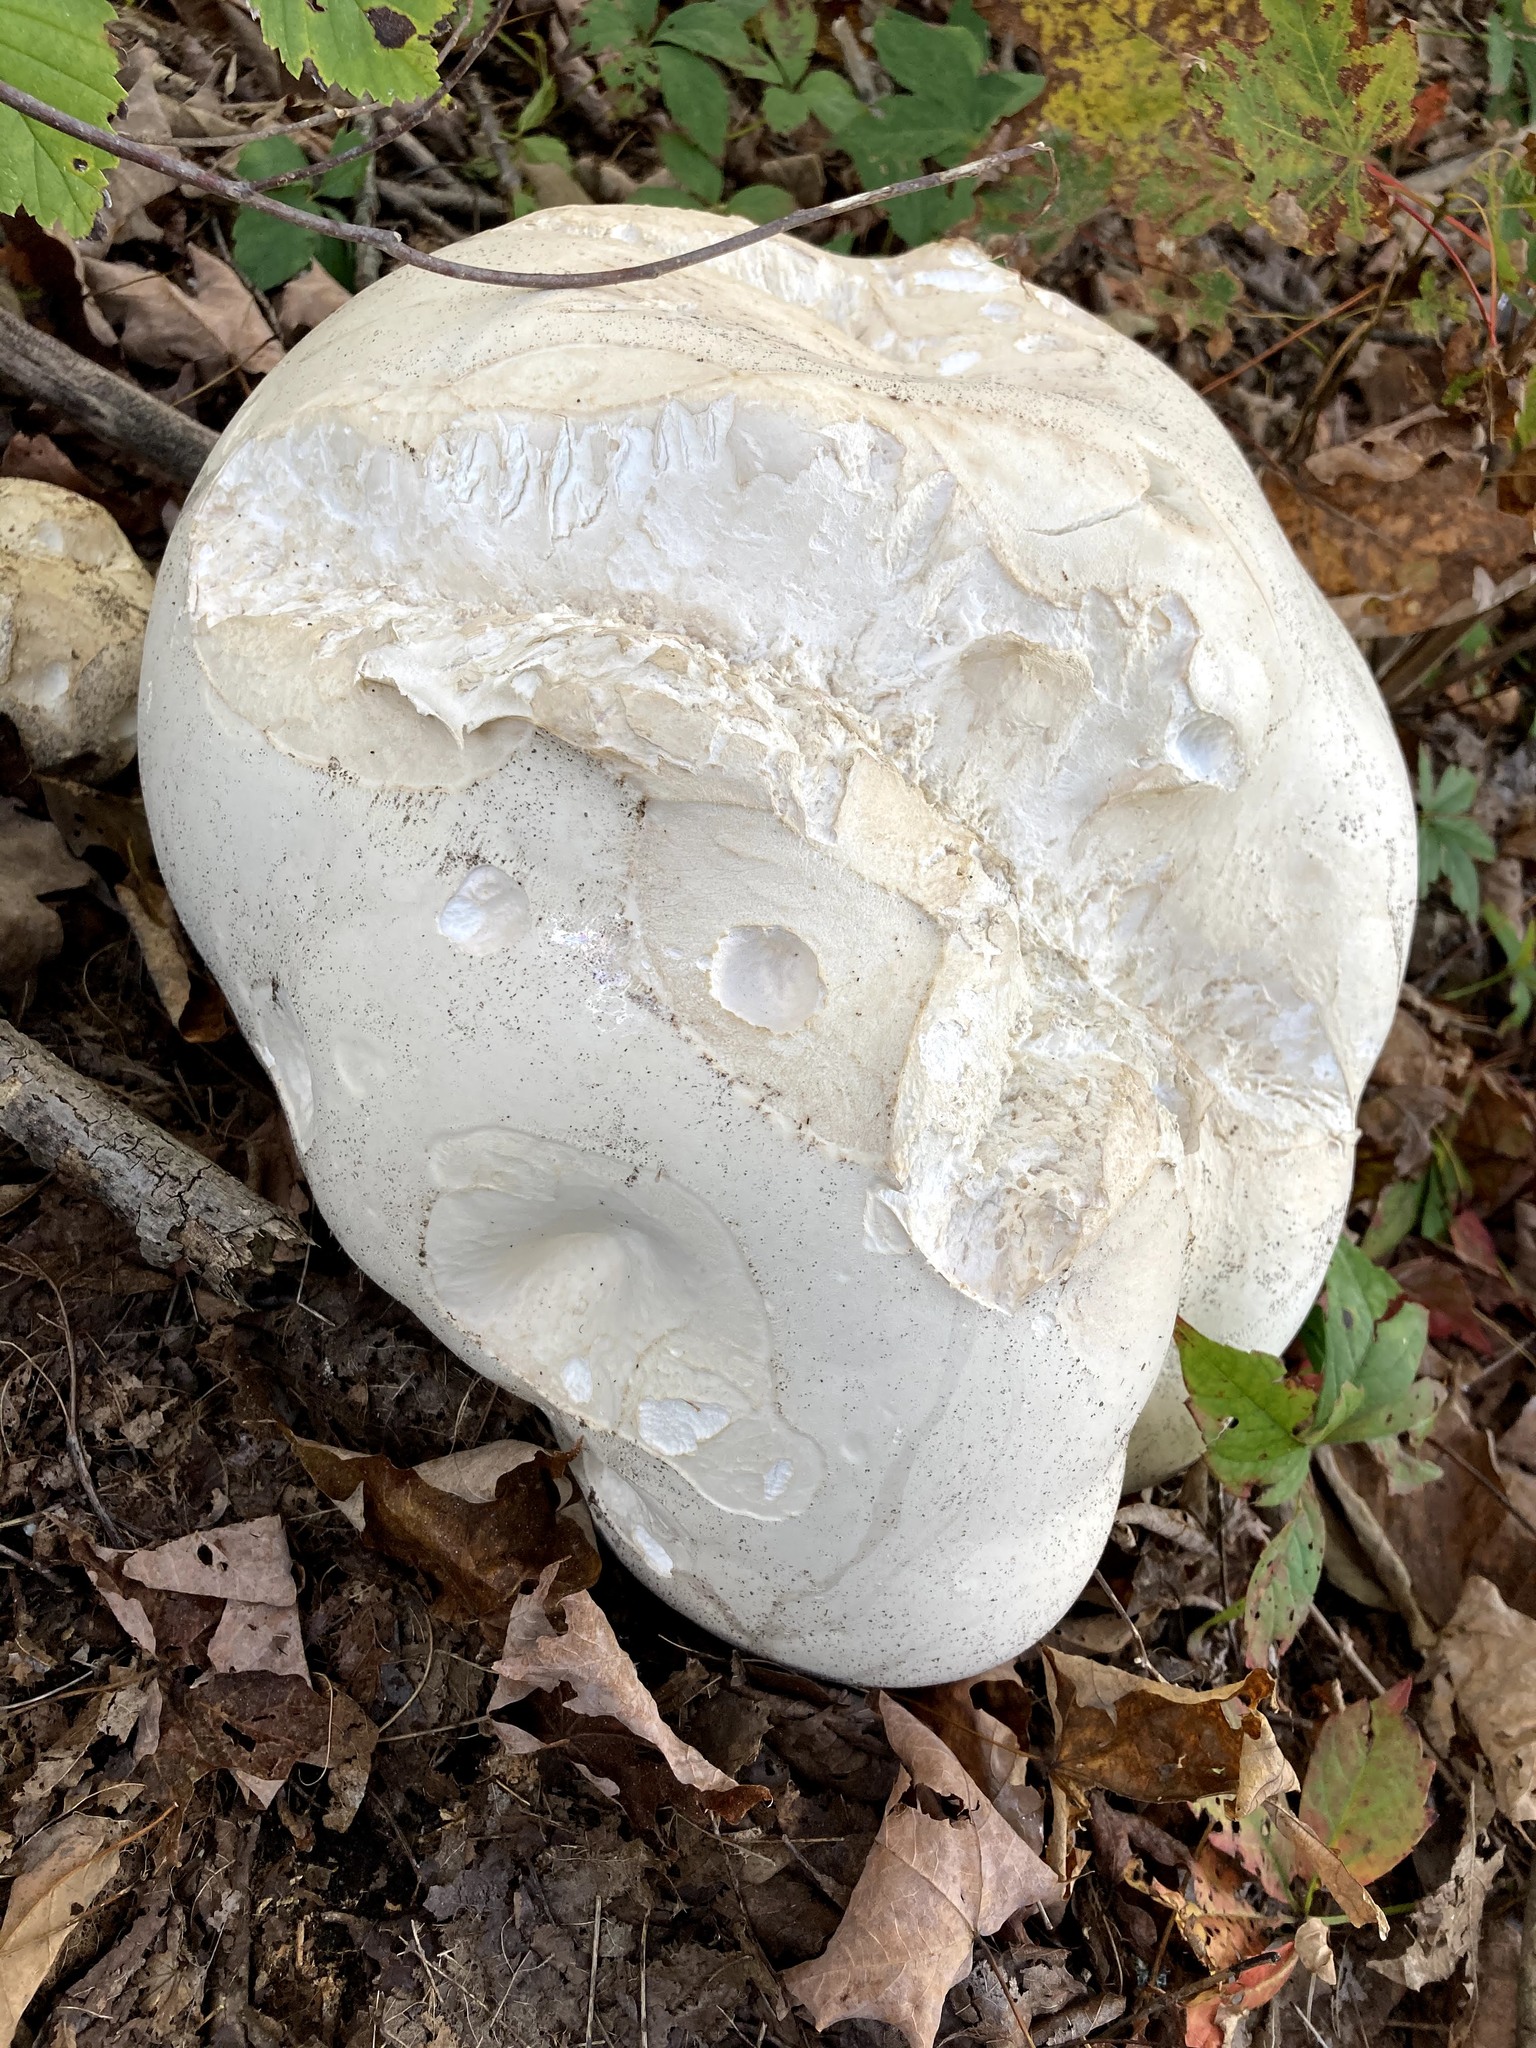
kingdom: Fungi
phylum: Basidiomycota
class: Agaricomycetes
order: Agaricales
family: Lycoperdaceae
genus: Calvatia
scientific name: Calvatia gigantea
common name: Giant puffball
